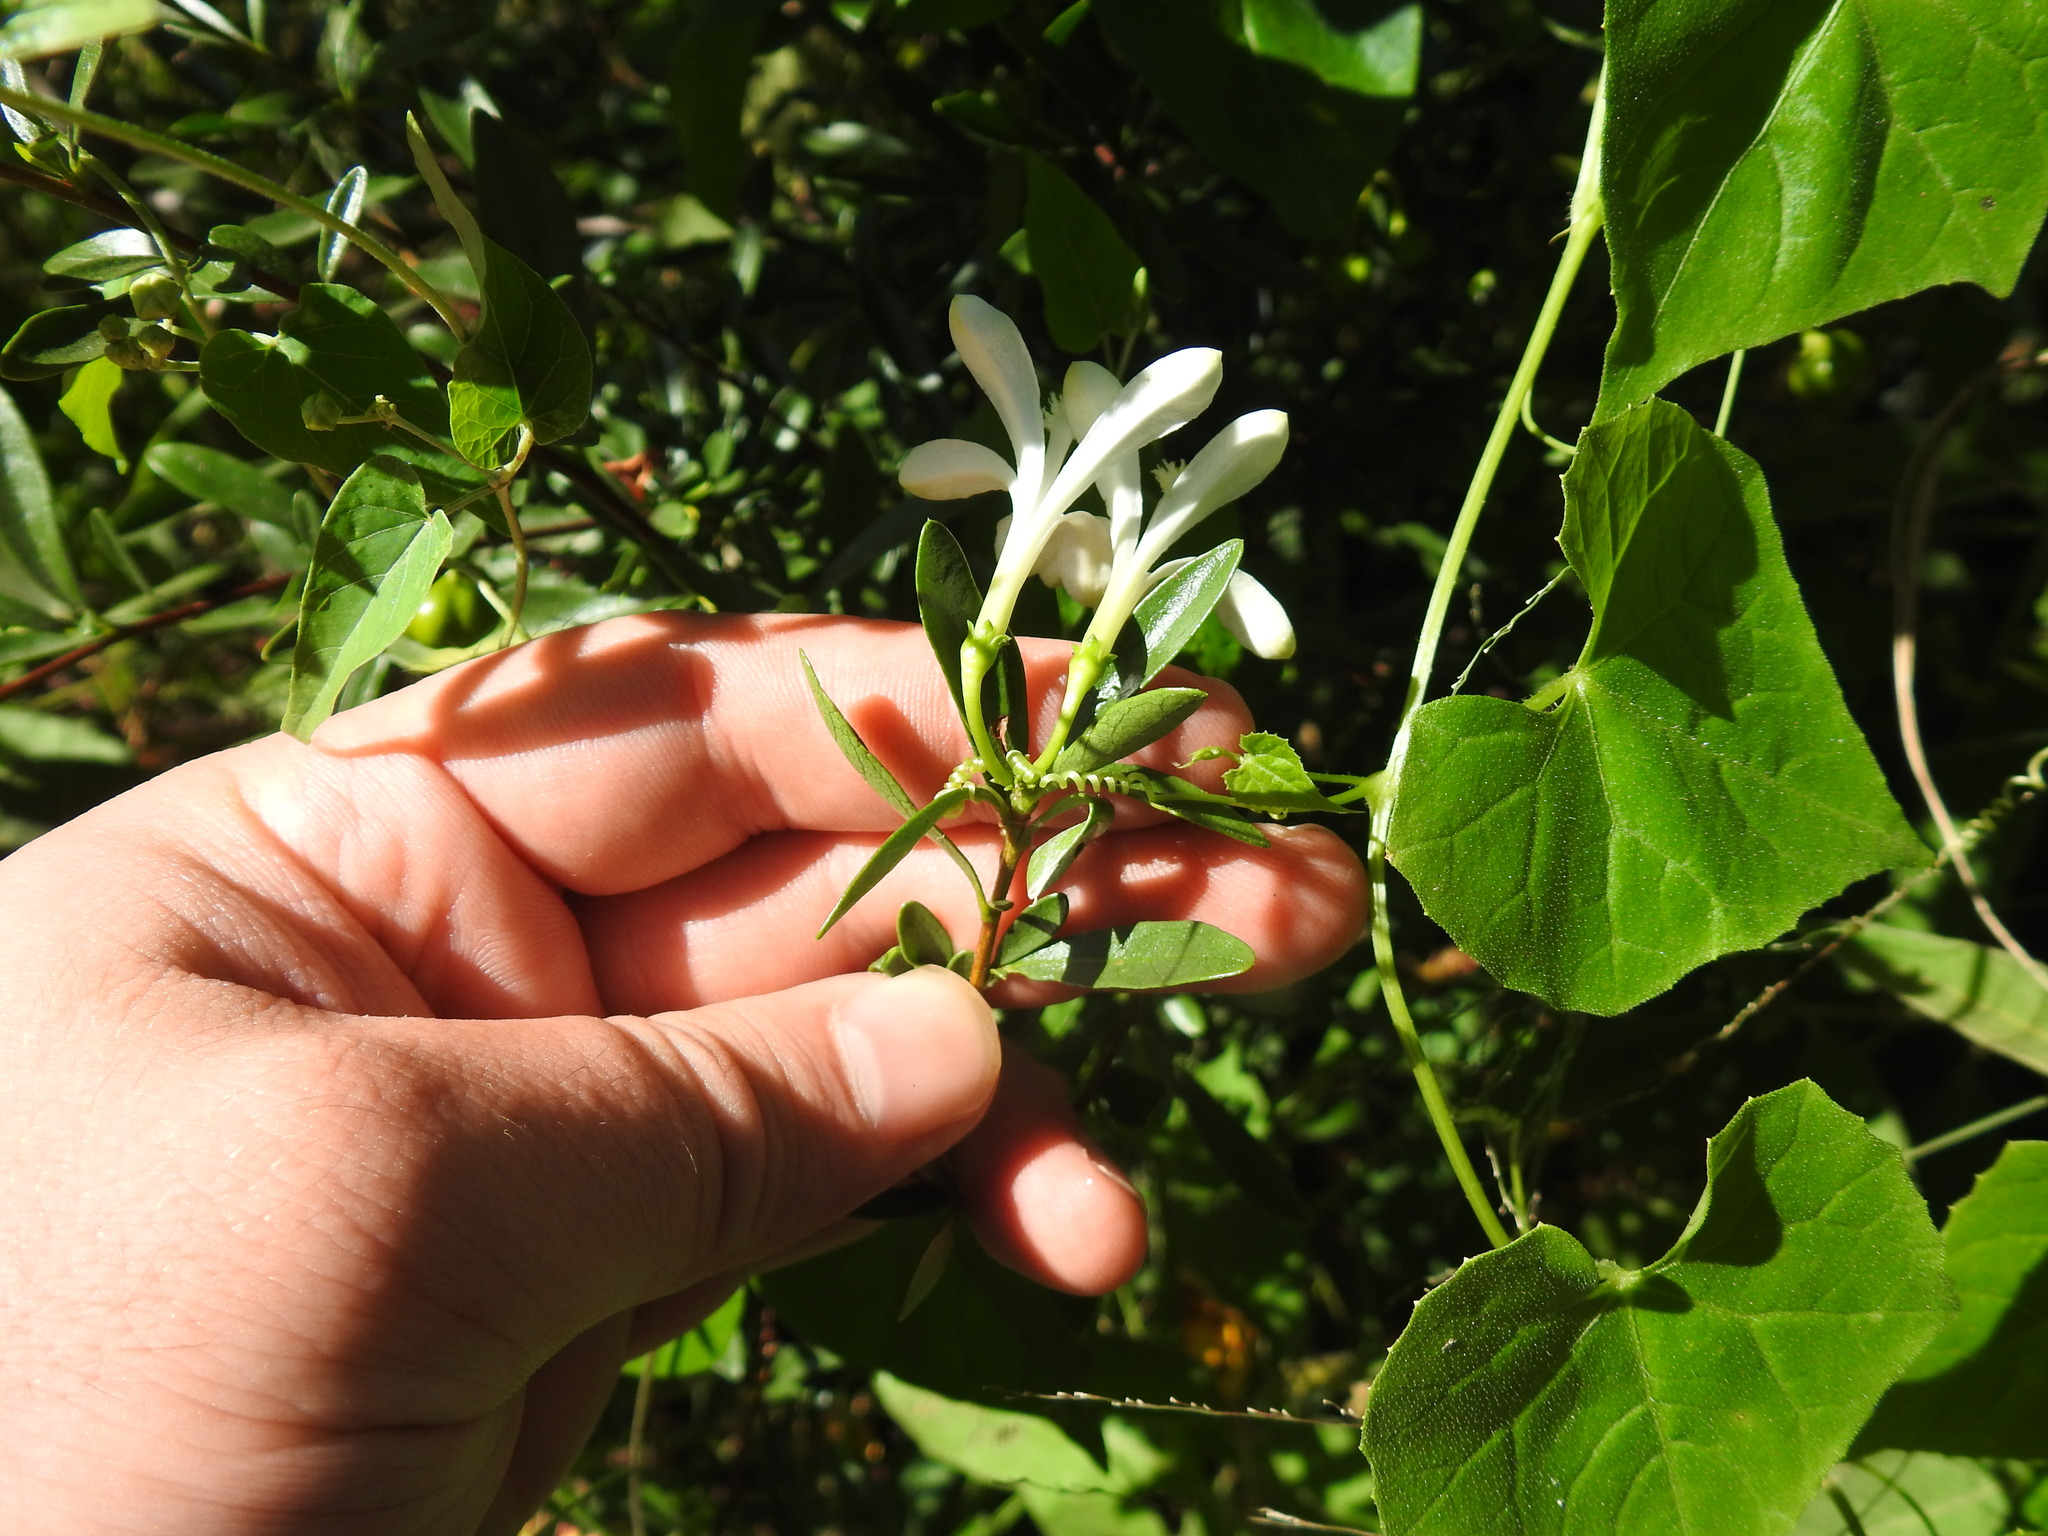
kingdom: Plantae
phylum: Tracheophyta
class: Magnoliopsida
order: Sapindales
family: Meliaceae
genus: Turraea
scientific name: Turraea obtusifolia
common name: Small honeysuckle tree
